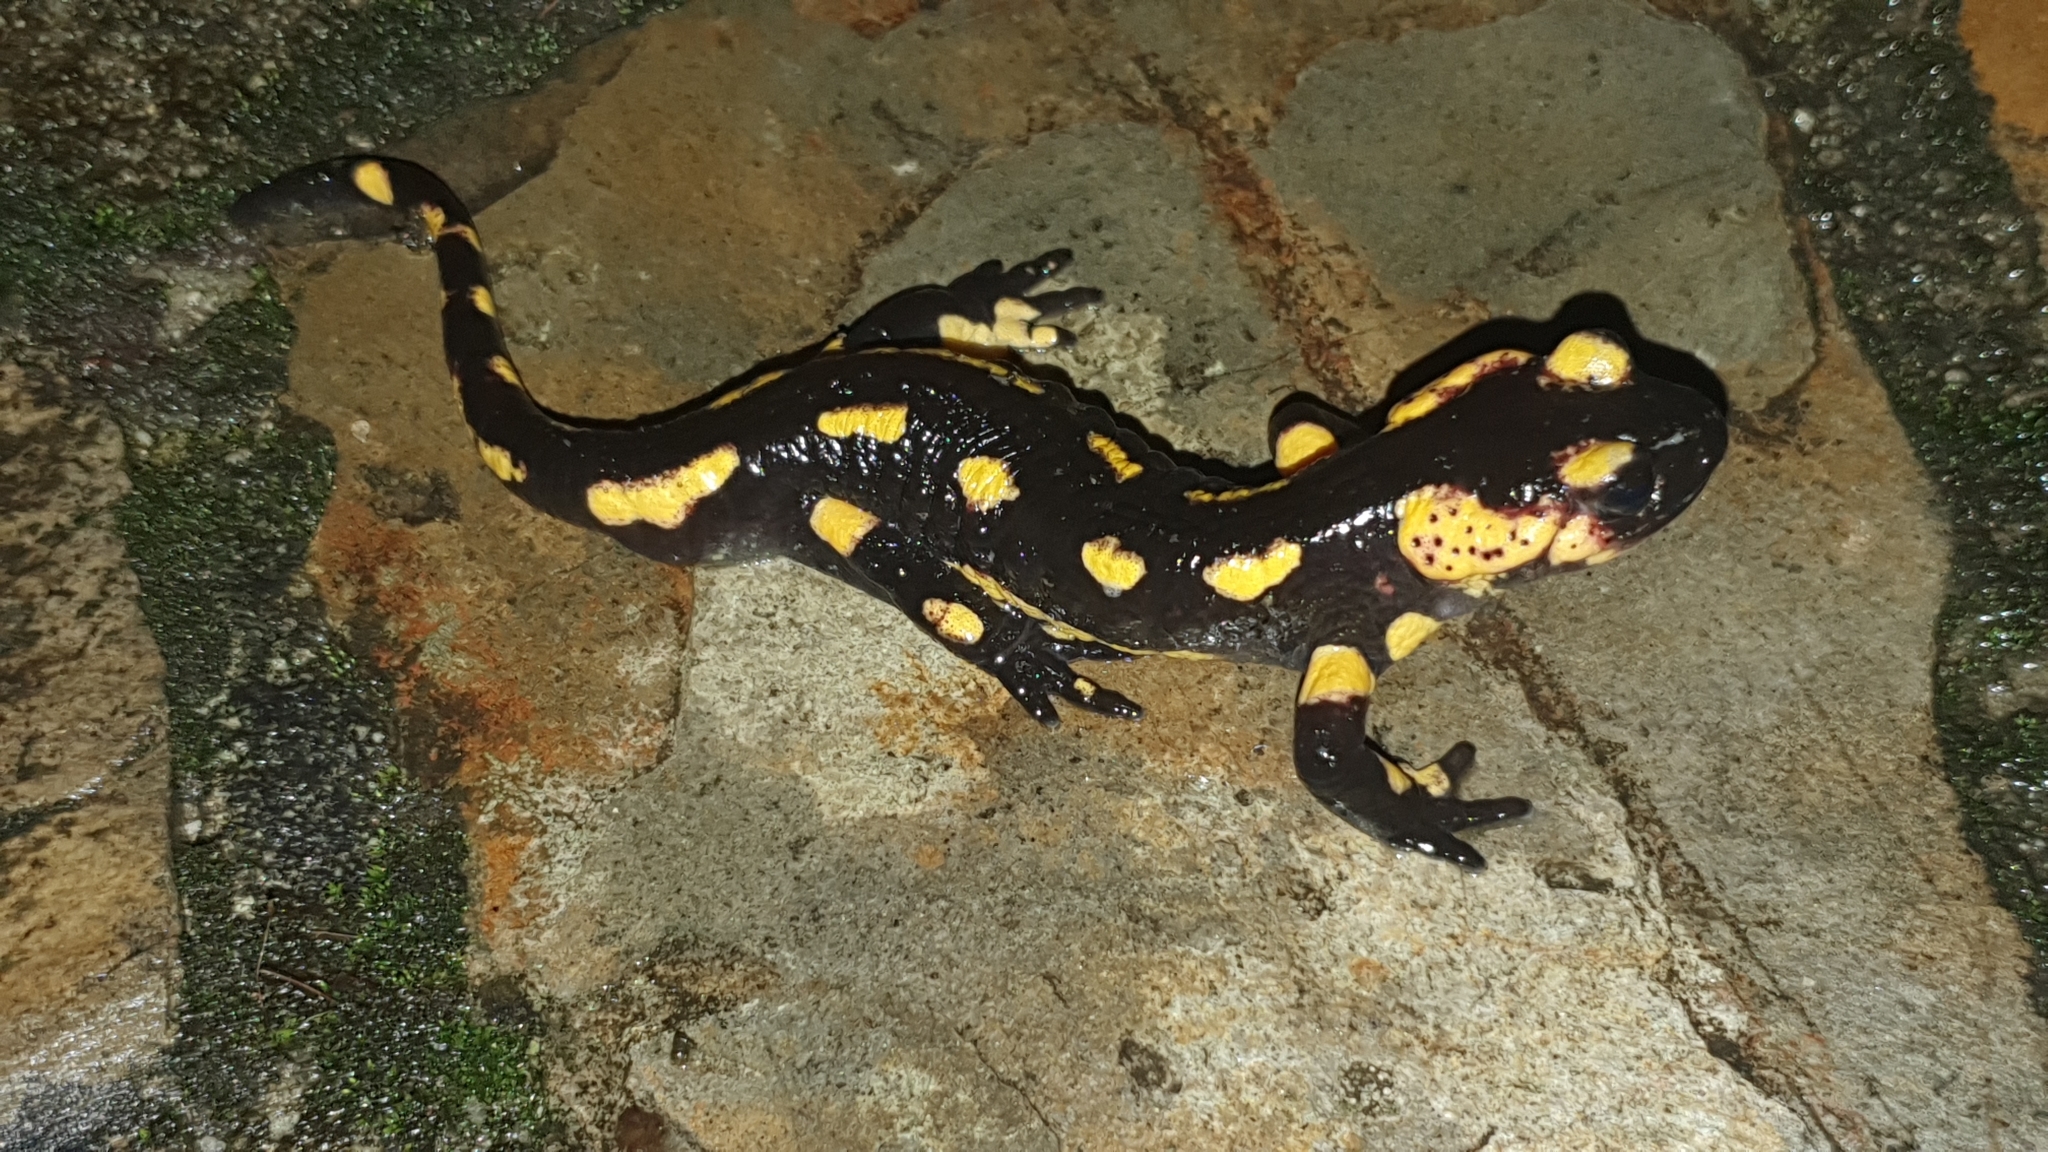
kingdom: Animalia
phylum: Chordata
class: Amphibia
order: Caudata
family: Salamandridae
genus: Salamandra
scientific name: Salamandra salamandra
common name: Fire salamander
